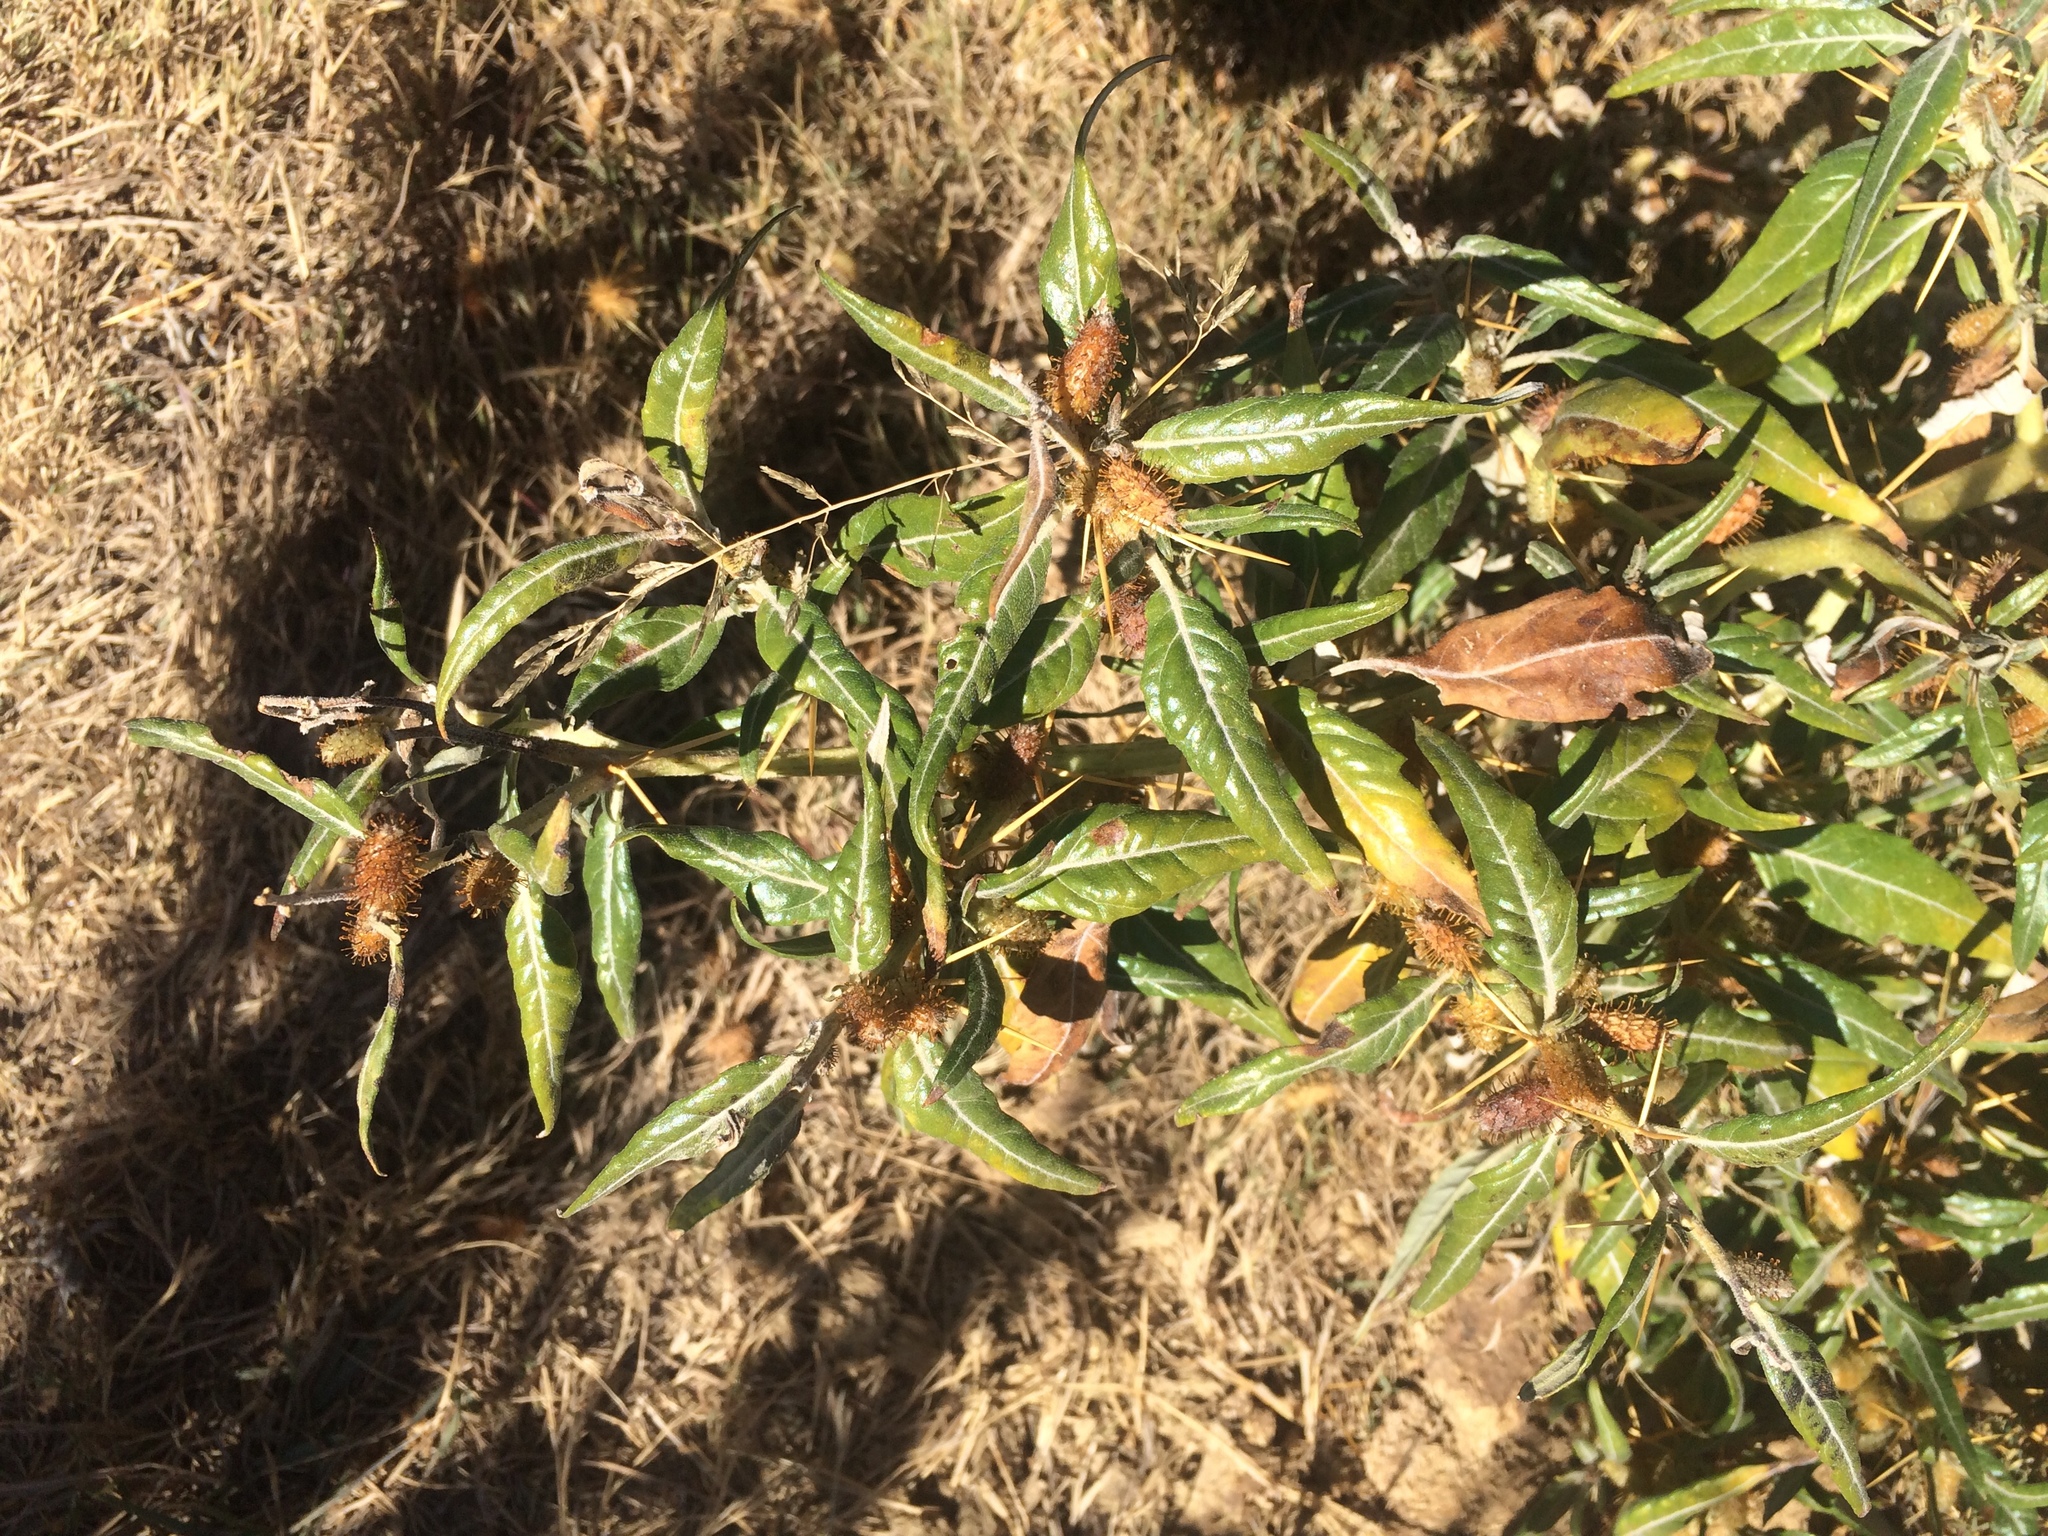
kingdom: Plantae
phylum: Tracheophyta
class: Magnoliopsida
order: Asterales
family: Asteraceae
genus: Xanthium
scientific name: Xanthium spinosum
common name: Spiny cocklebur
